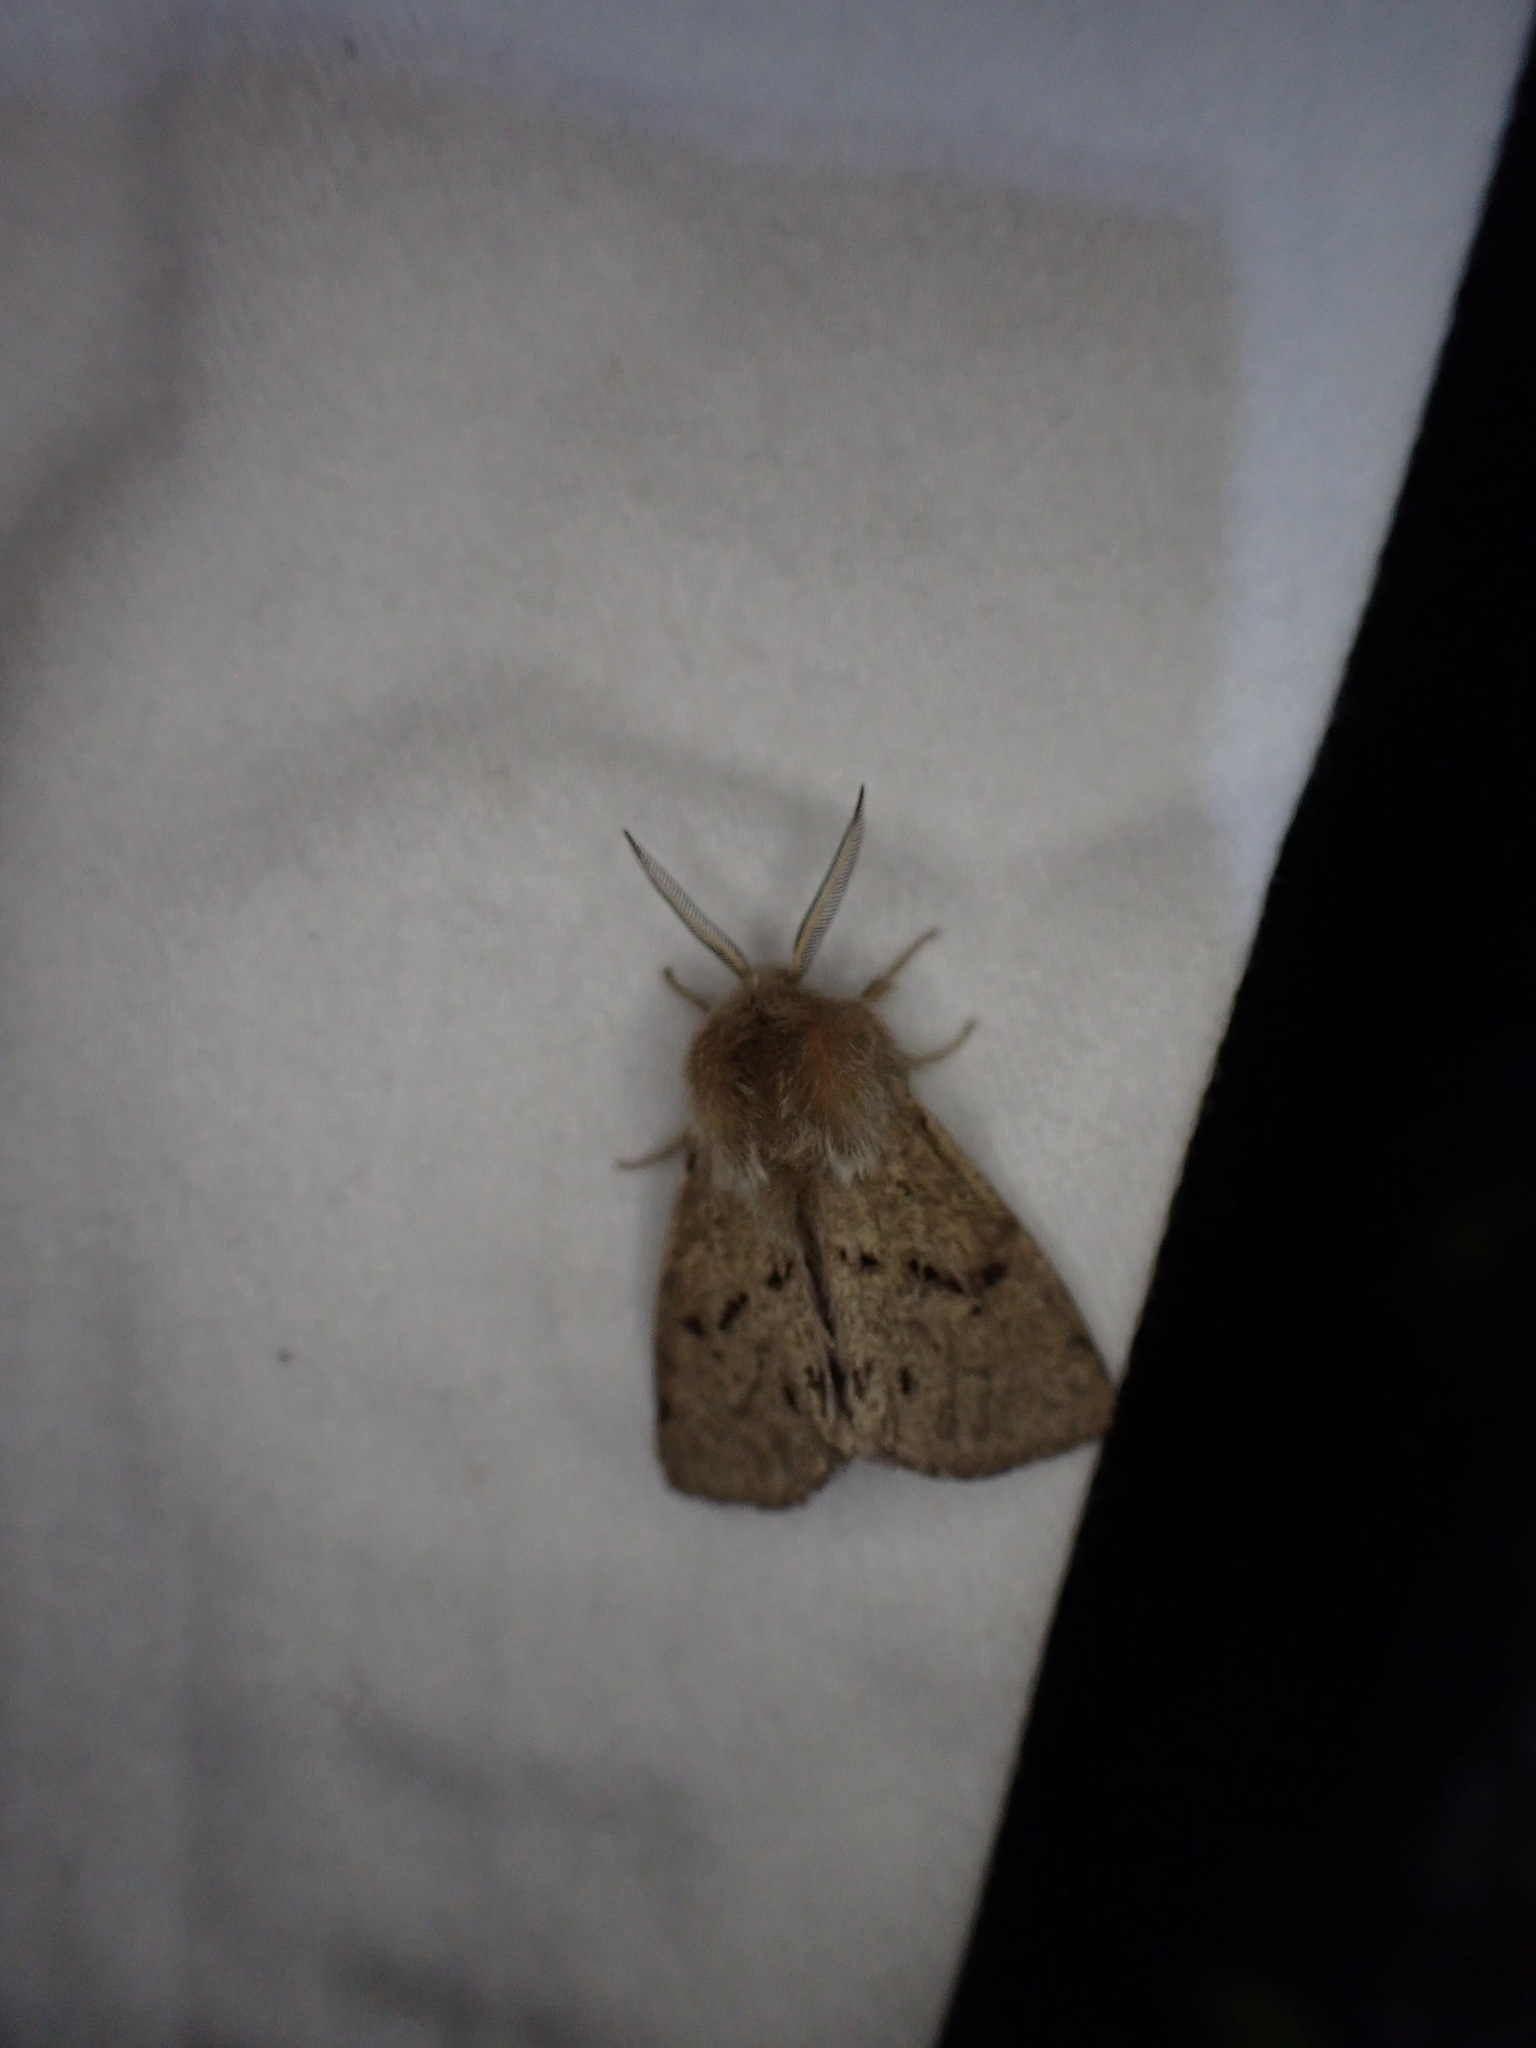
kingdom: Animalia
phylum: Arthropoda
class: Insecta
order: Lepidoptera
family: Erebidae
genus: Spilosoma
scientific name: Spilosoma vagans
